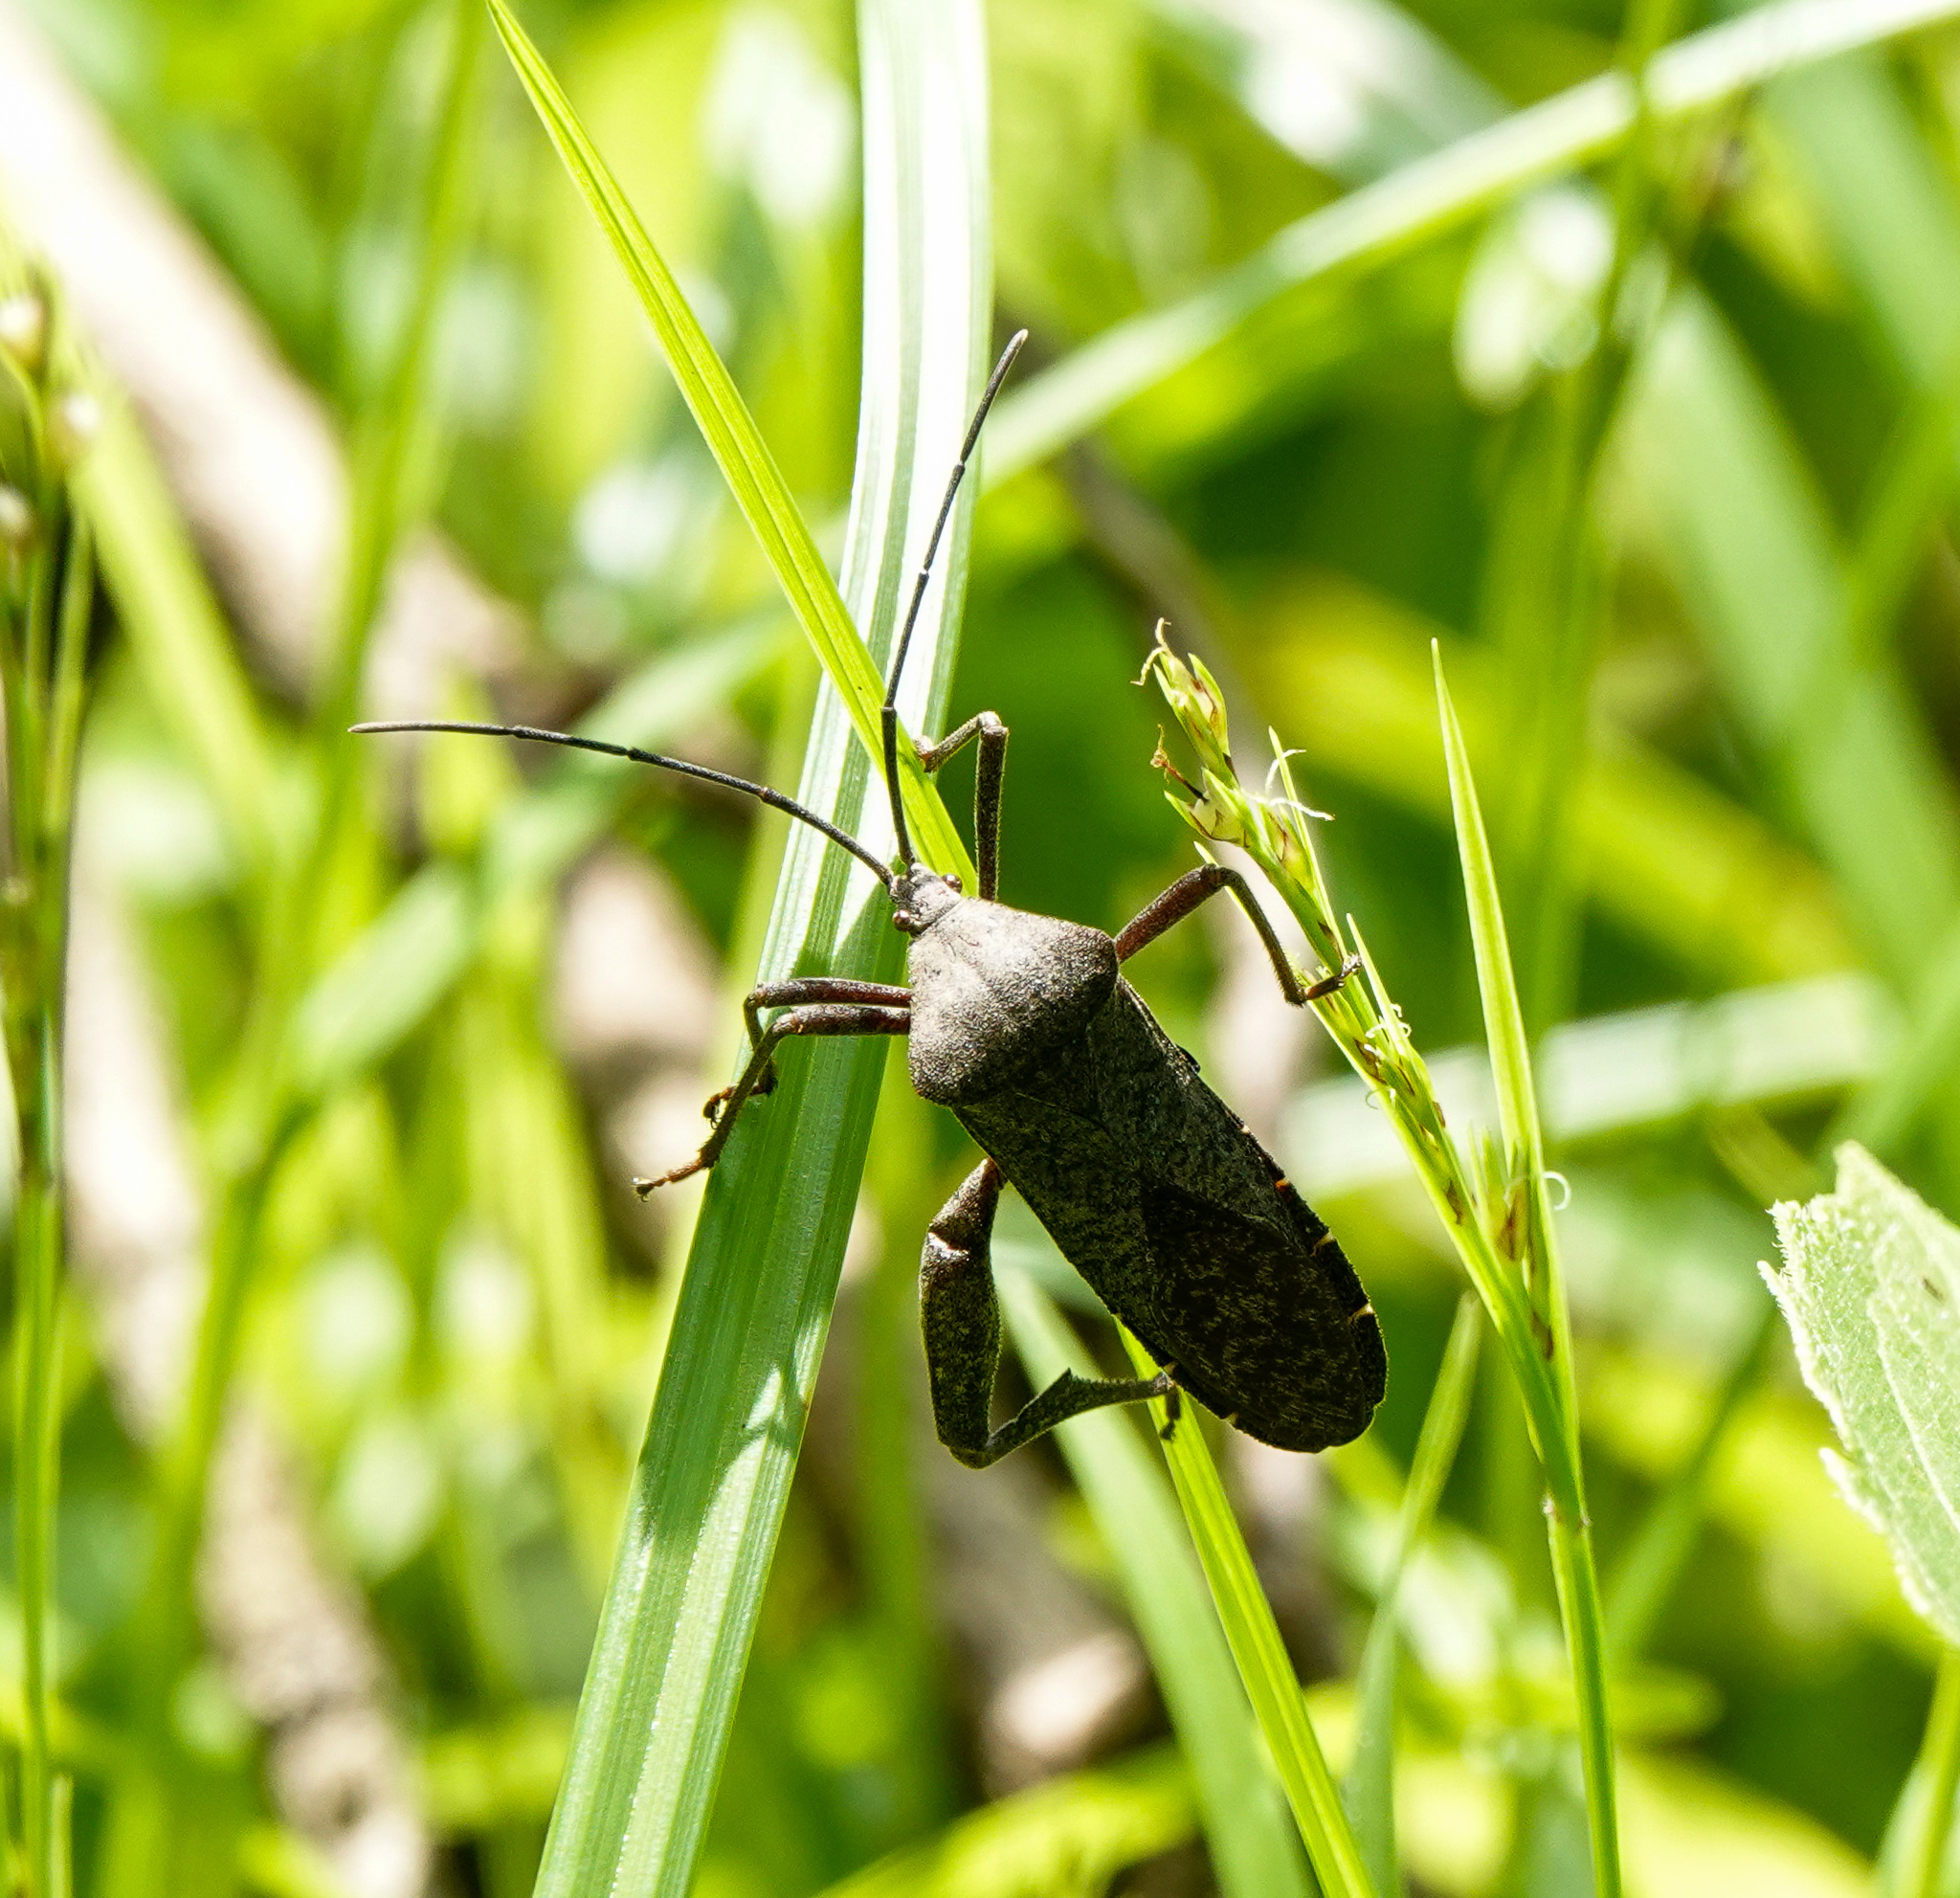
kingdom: Animalia
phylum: Arthropoda
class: Insecta
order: Hemiptera
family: Coreidae
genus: Mictis
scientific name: Mictis tenebrosa
